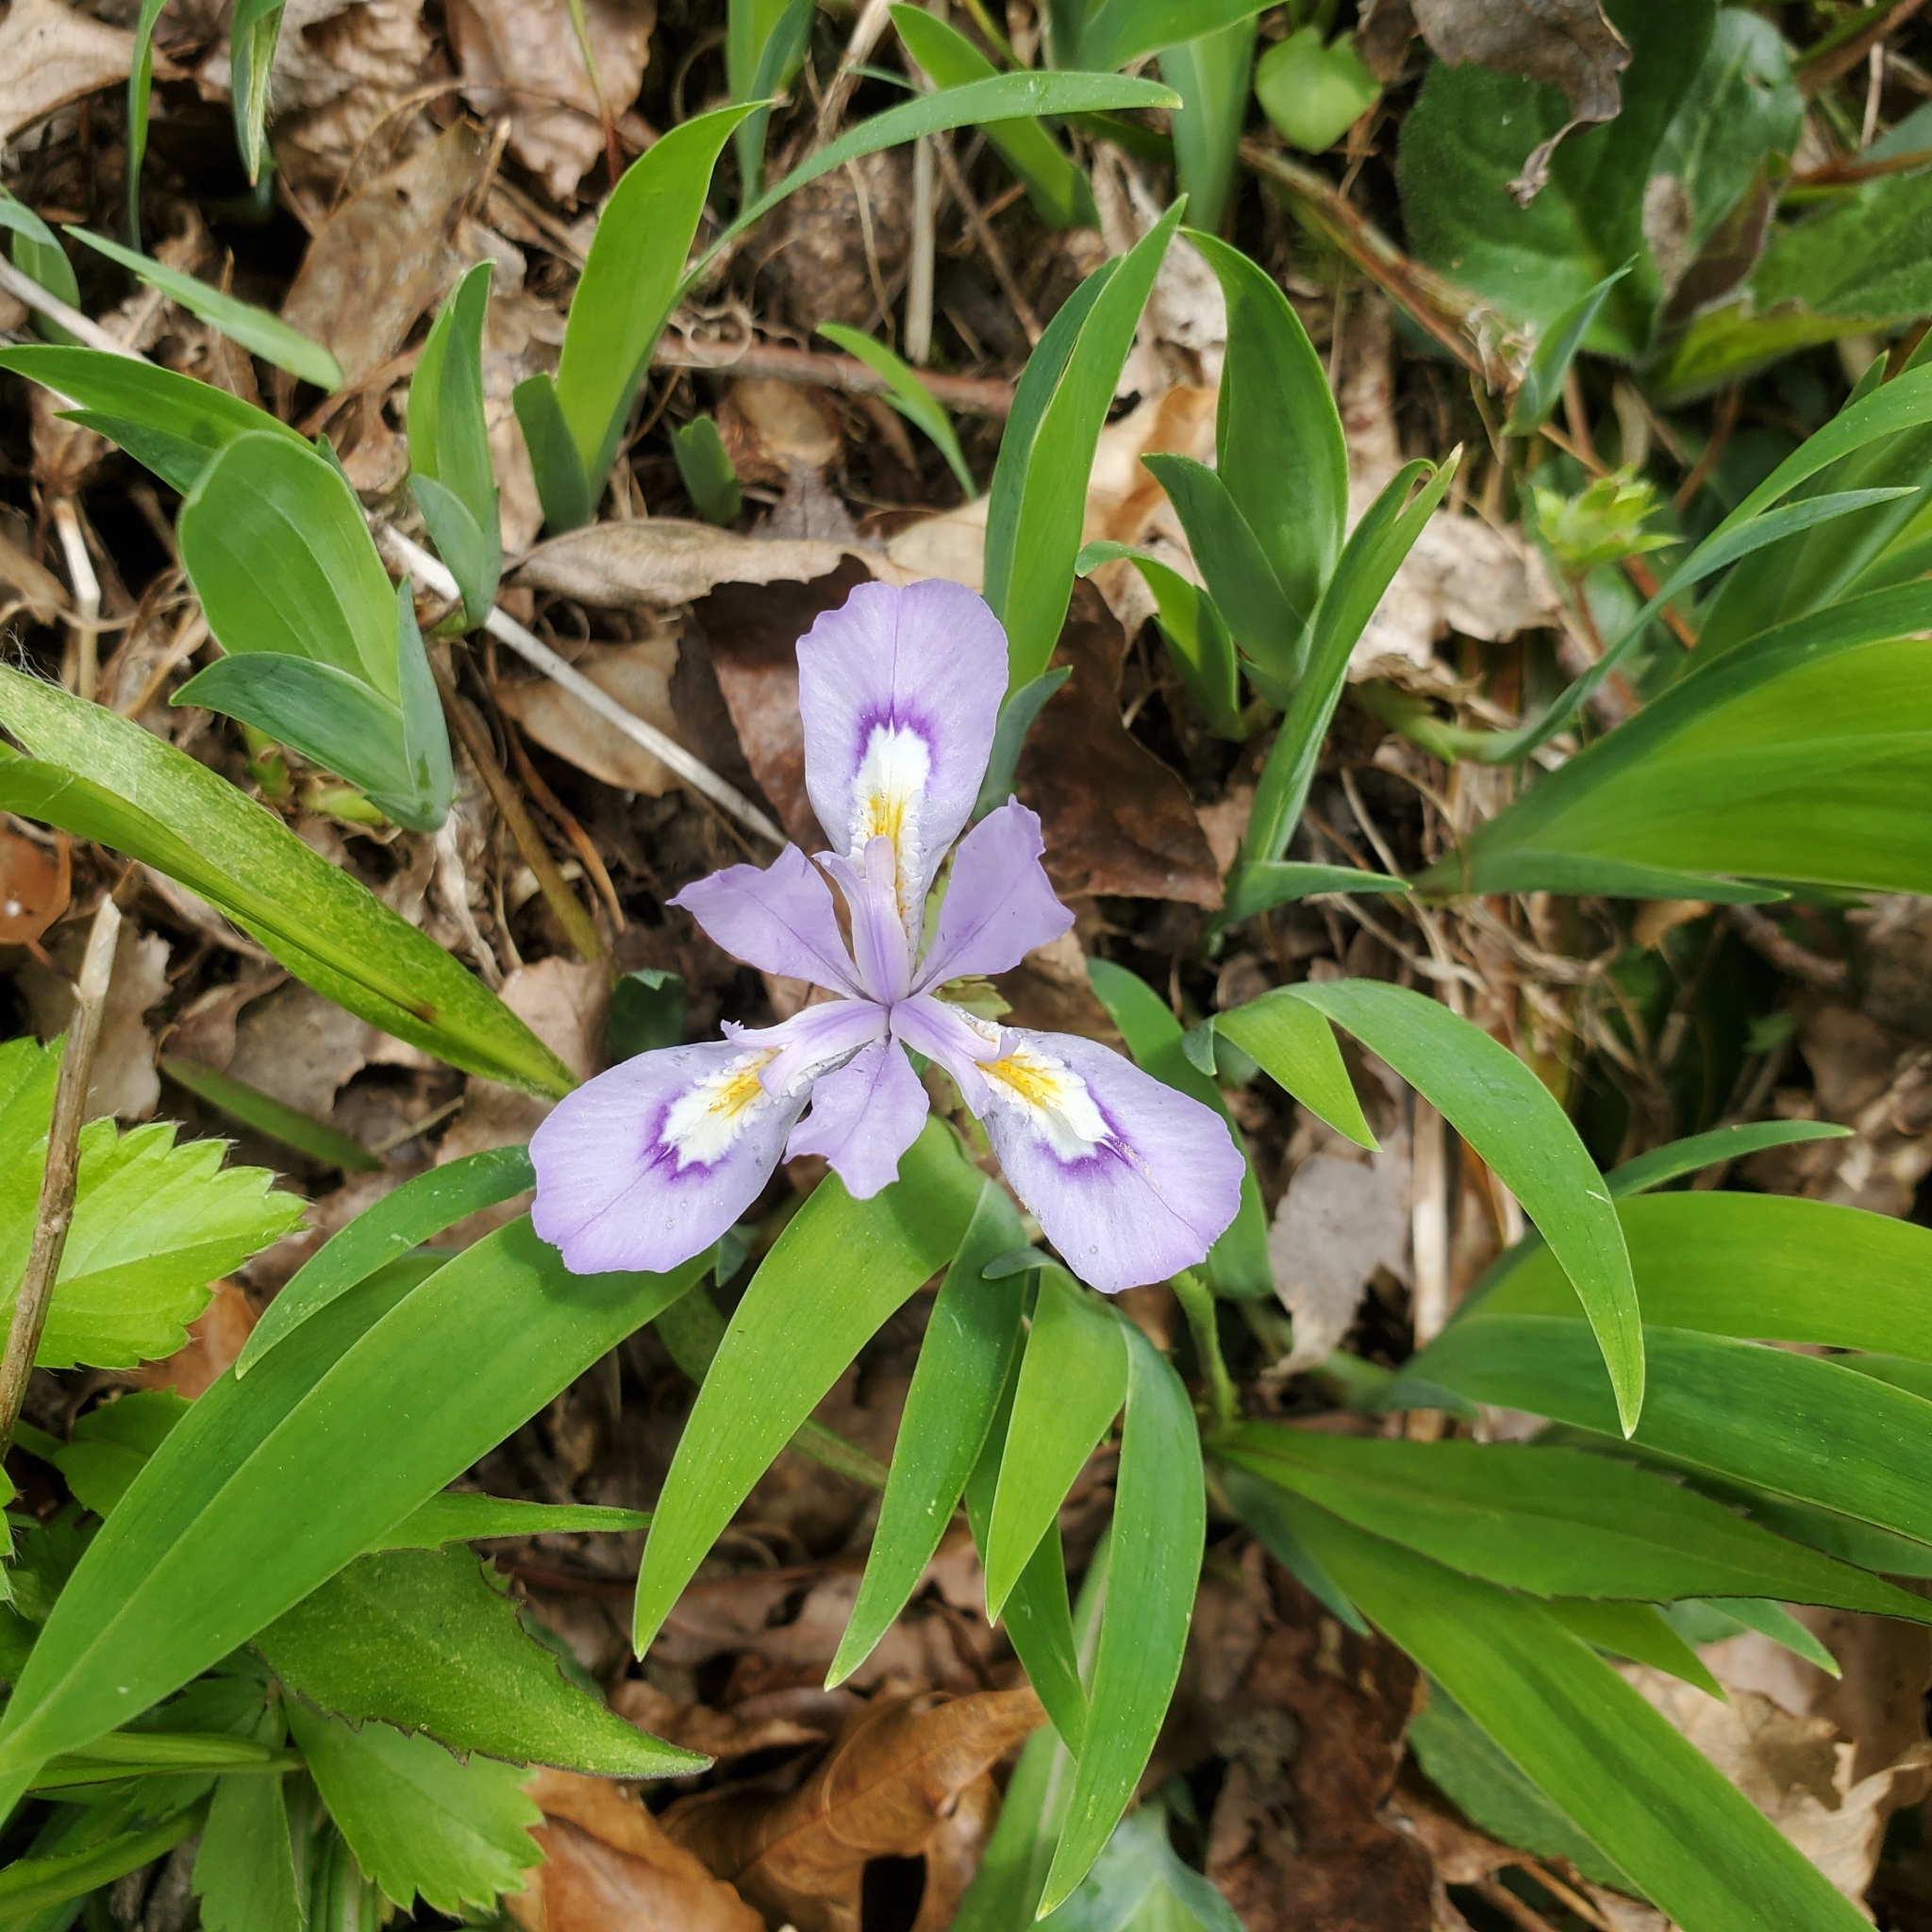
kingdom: Plantae
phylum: Tracheophyta
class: Liliopsida
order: Asparagales
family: Iridaceae
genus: Iris
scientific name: Iris cristata
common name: Crested iris
